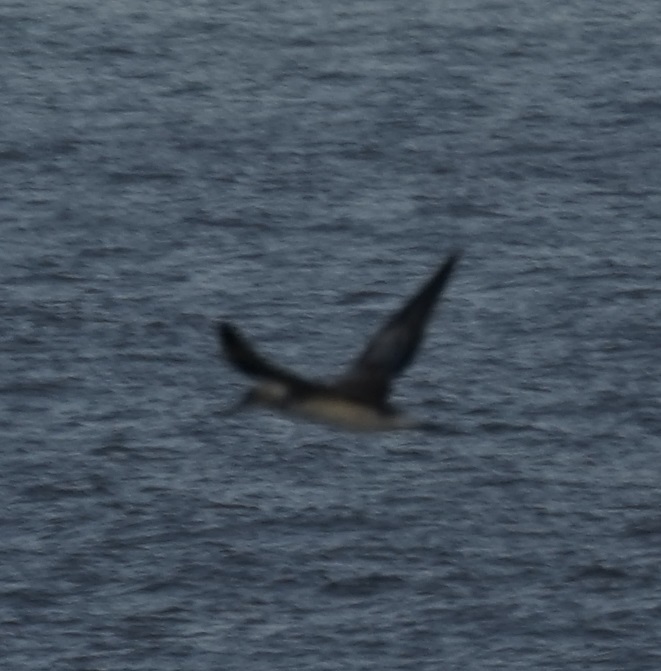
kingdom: Animalia
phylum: Chordata
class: Aves
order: Suliformes
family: Sulidae
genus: Morus
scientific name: Morus serrator
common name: Australasian gannet
